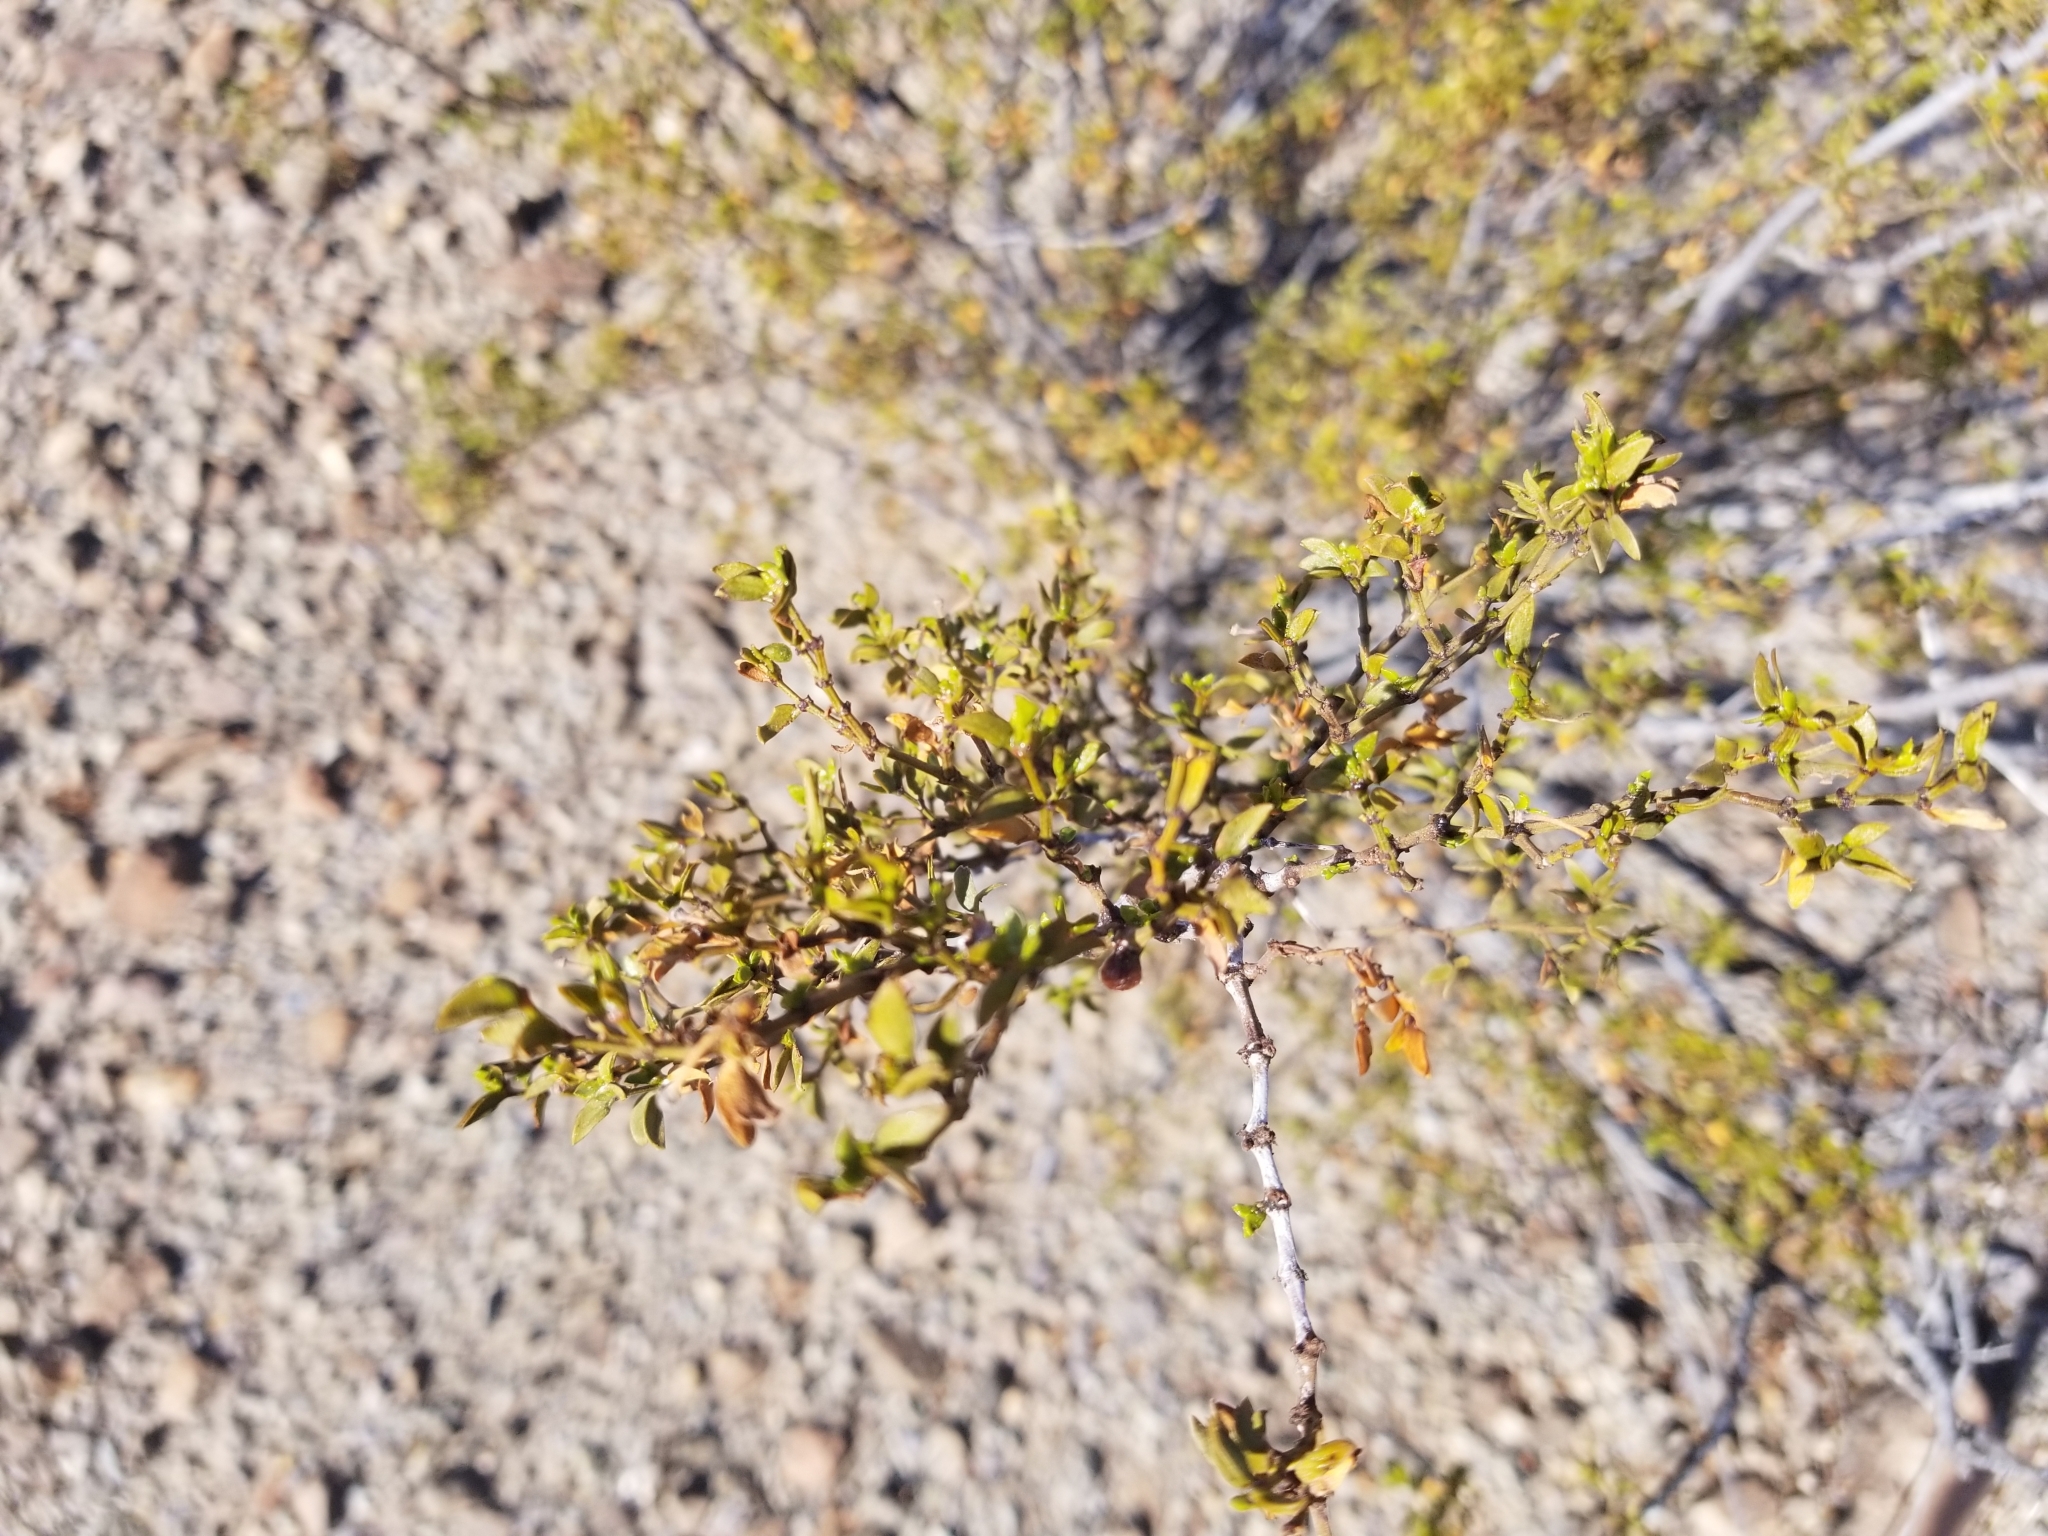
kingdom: Plantae
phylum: Tracheophyta
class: Magnoliopsida
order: Zygophyllales
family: Zygophyllaceae
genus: Larrea
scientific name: Larrea tridentata
